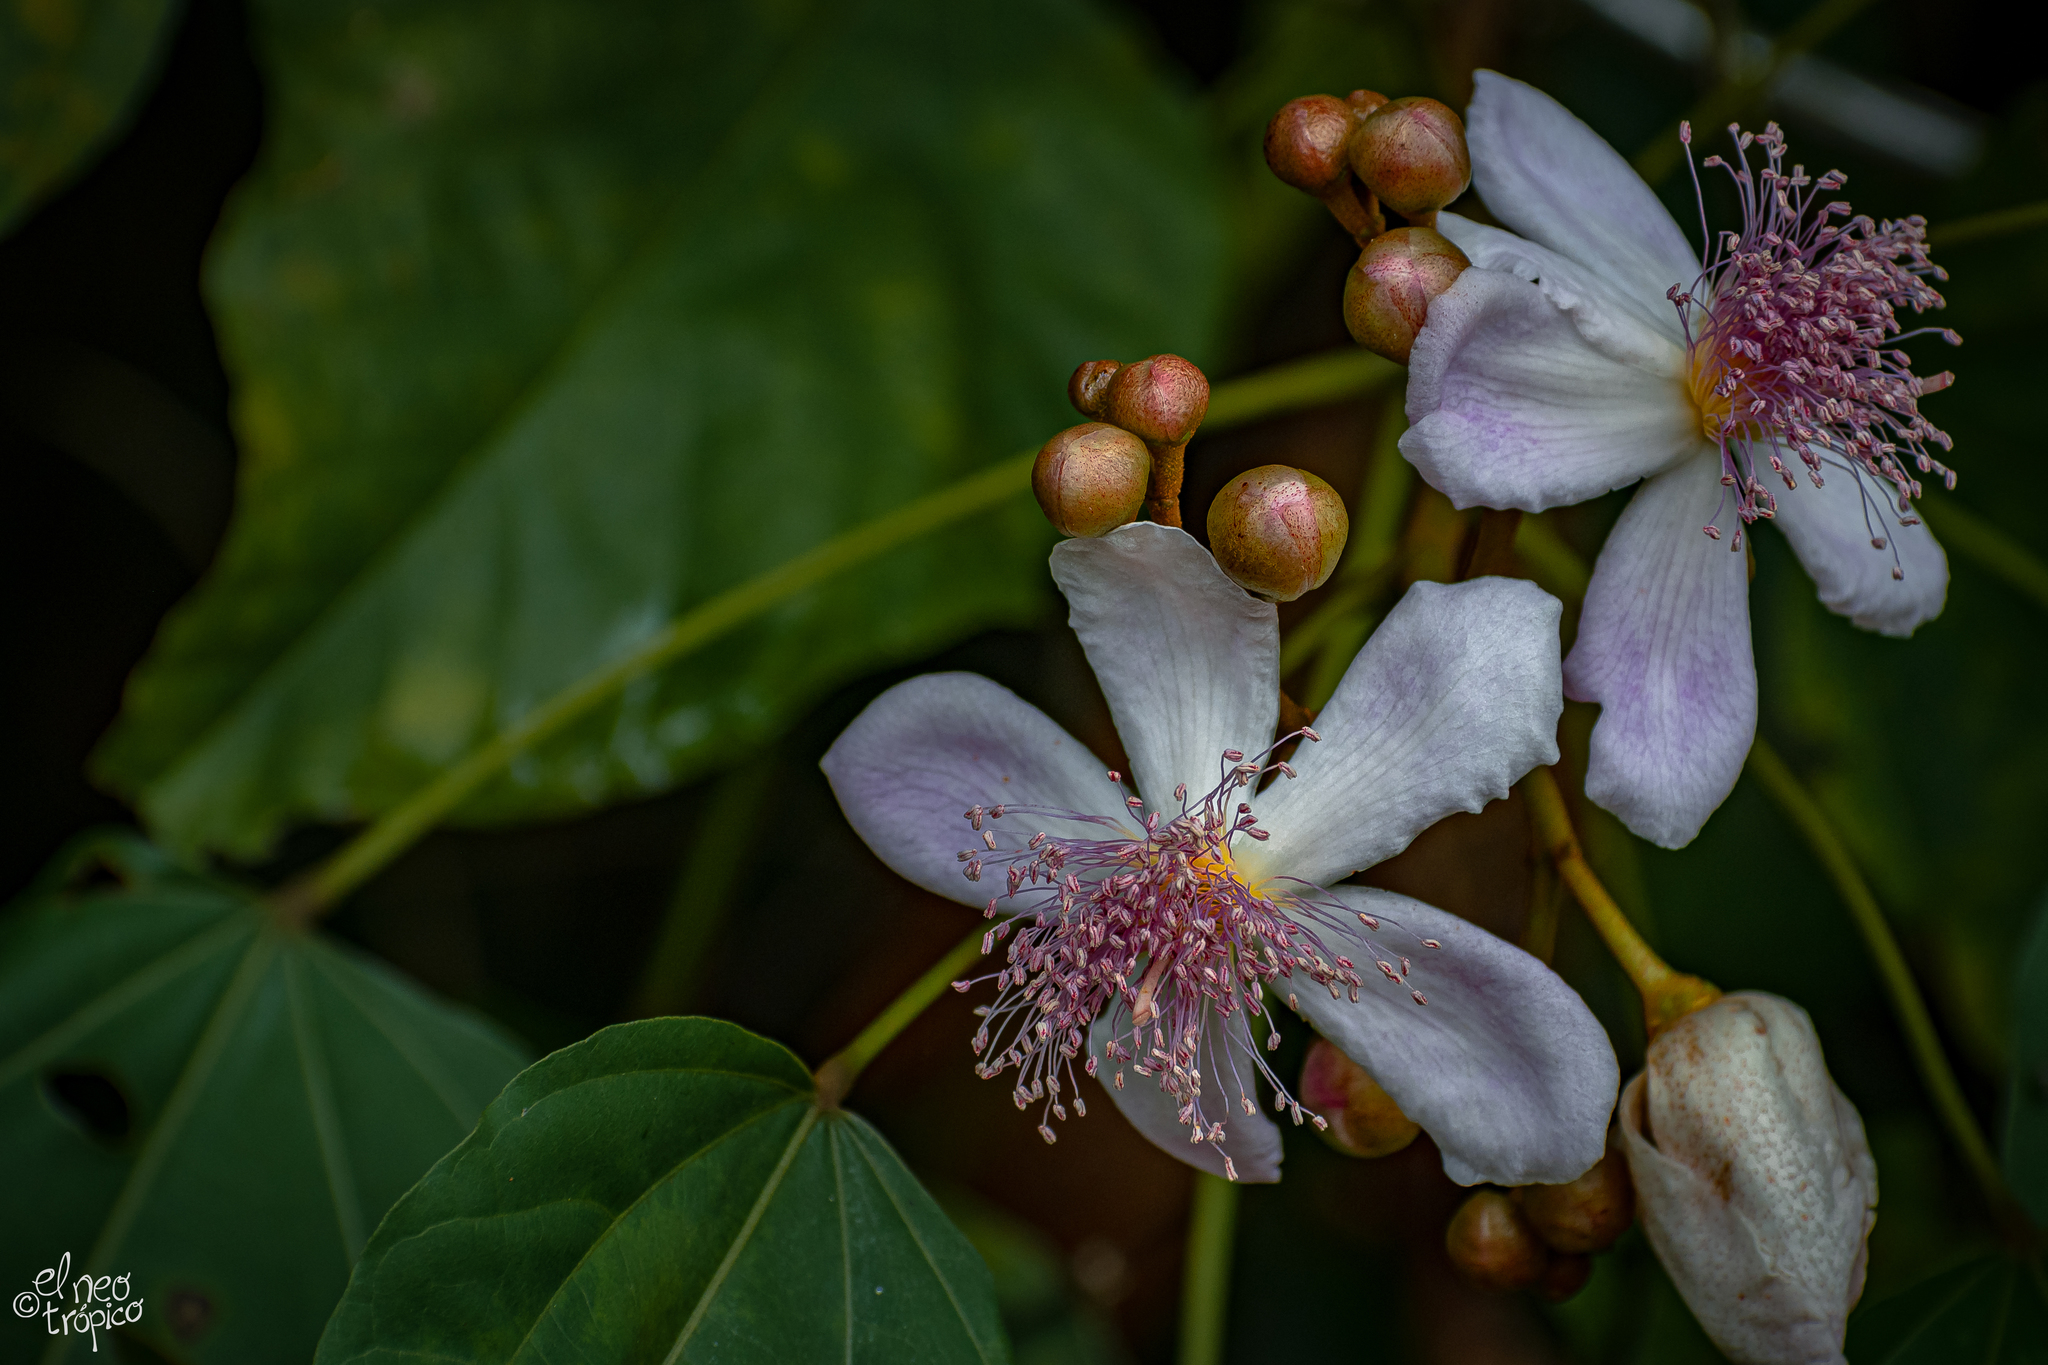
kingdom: Plantae
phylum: Tracheophyta
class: Magnoliopsida
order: Malvales
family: Bixaceae
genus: Bixa
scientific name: Bixa orellana
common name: Lipsticktree
